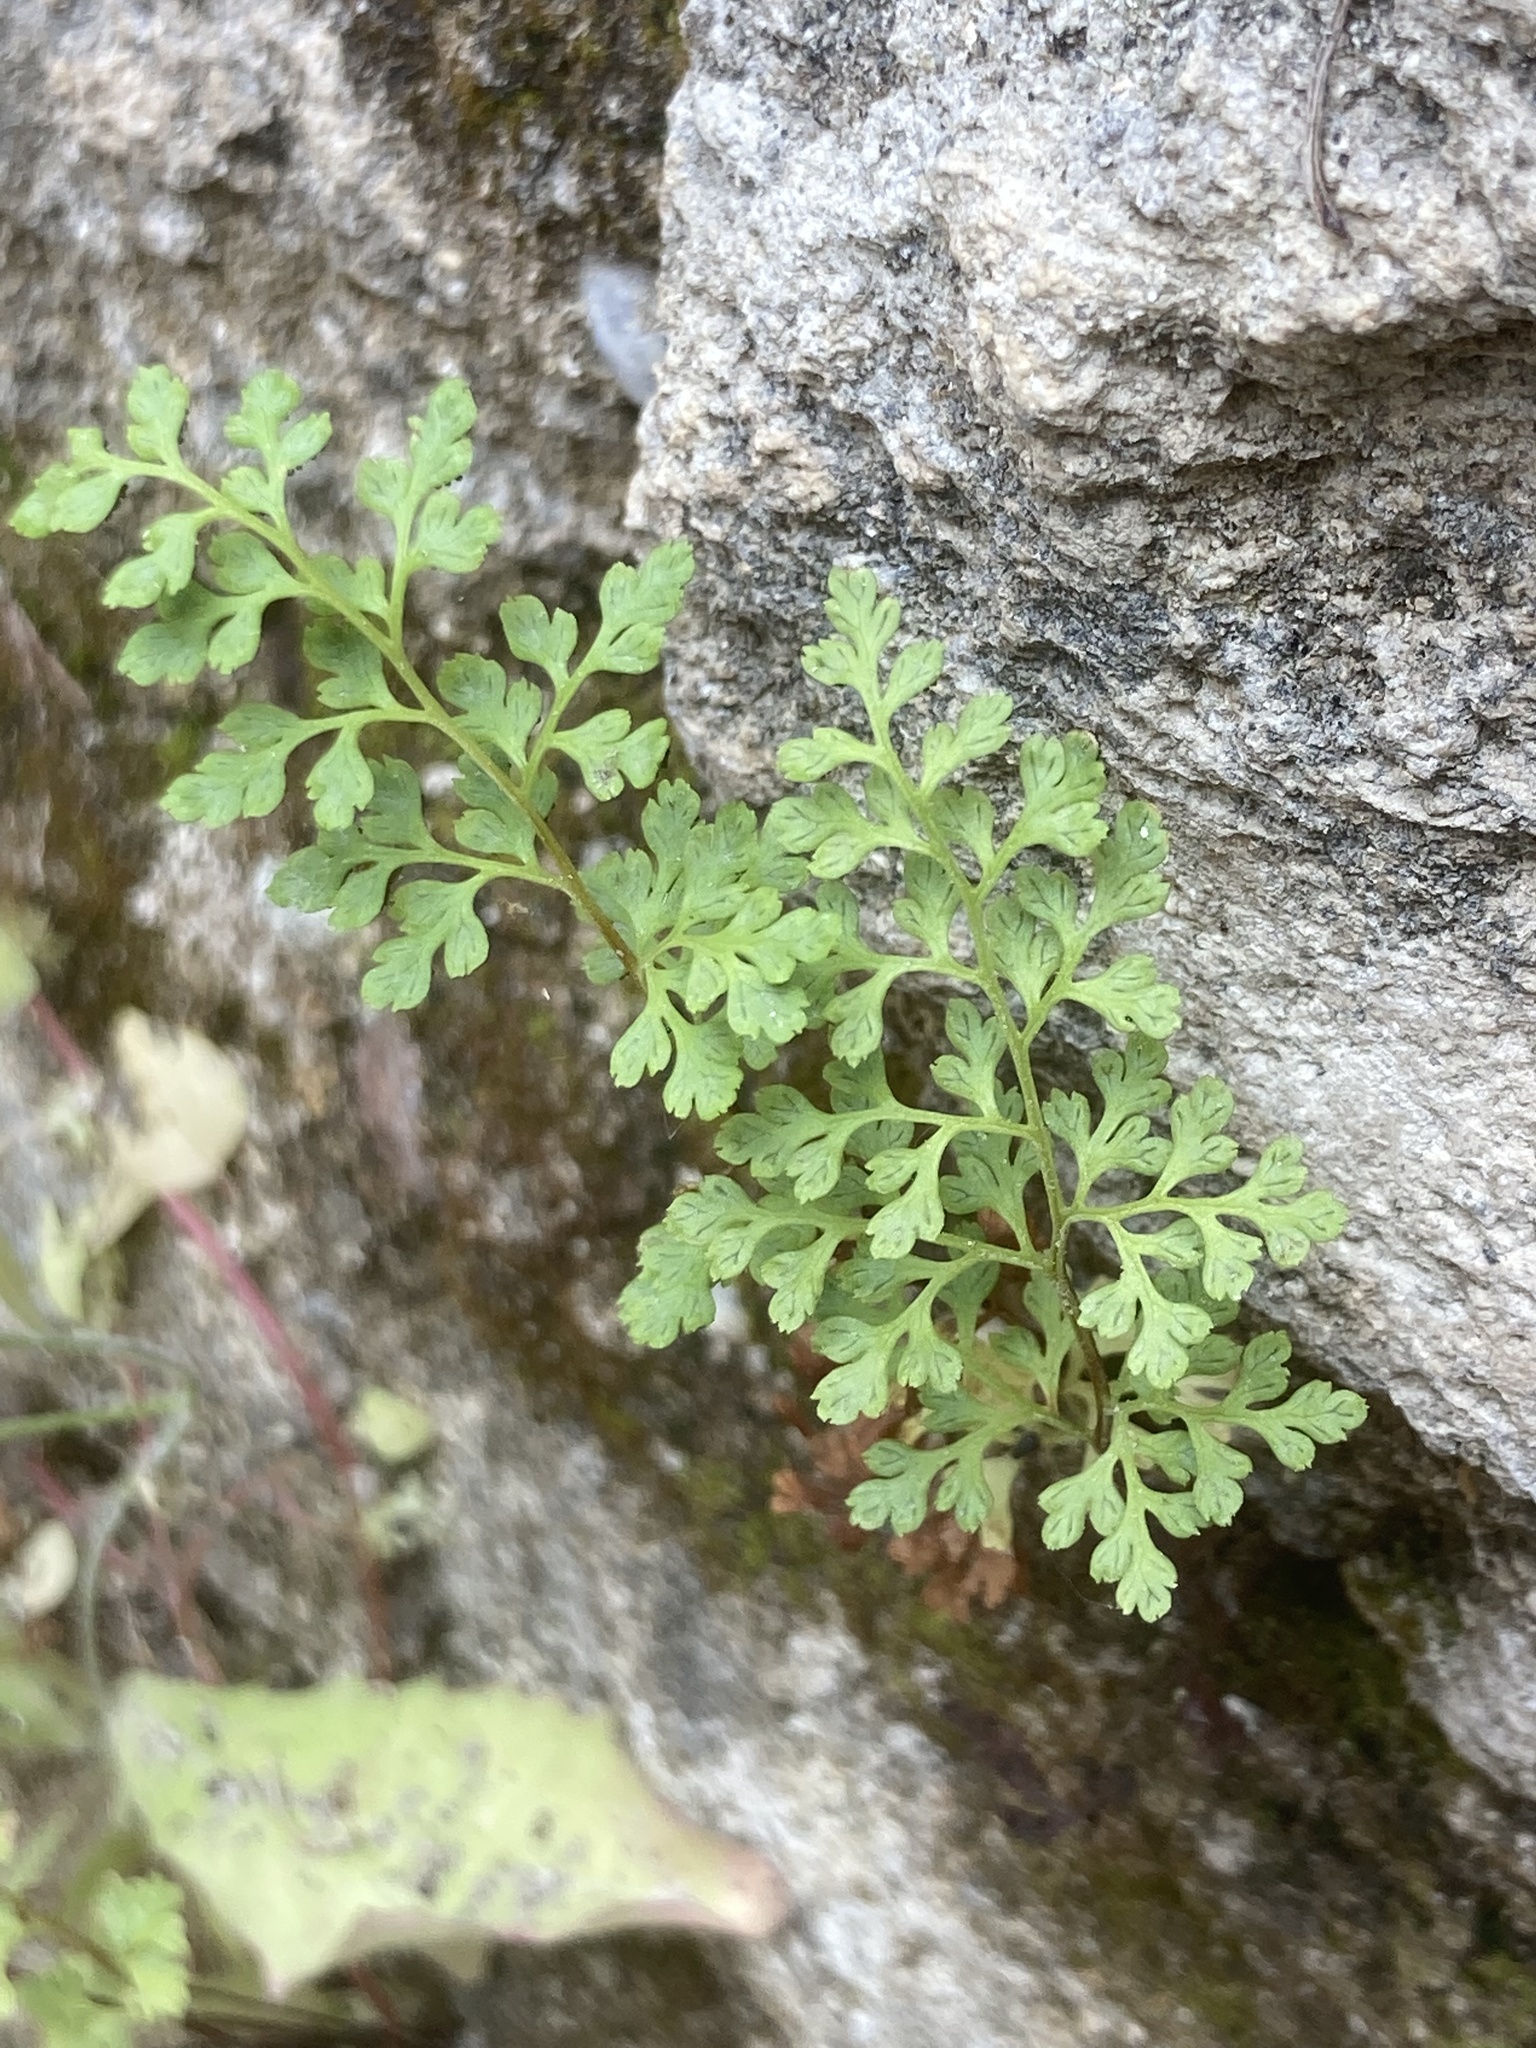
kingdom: Plantae
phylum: Tracheophyta
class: Polypodiopsida
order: Polypodiales
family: Pteridaceae
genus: Anogramma
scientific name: Anogramma leptophylla
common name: Jersey fern
